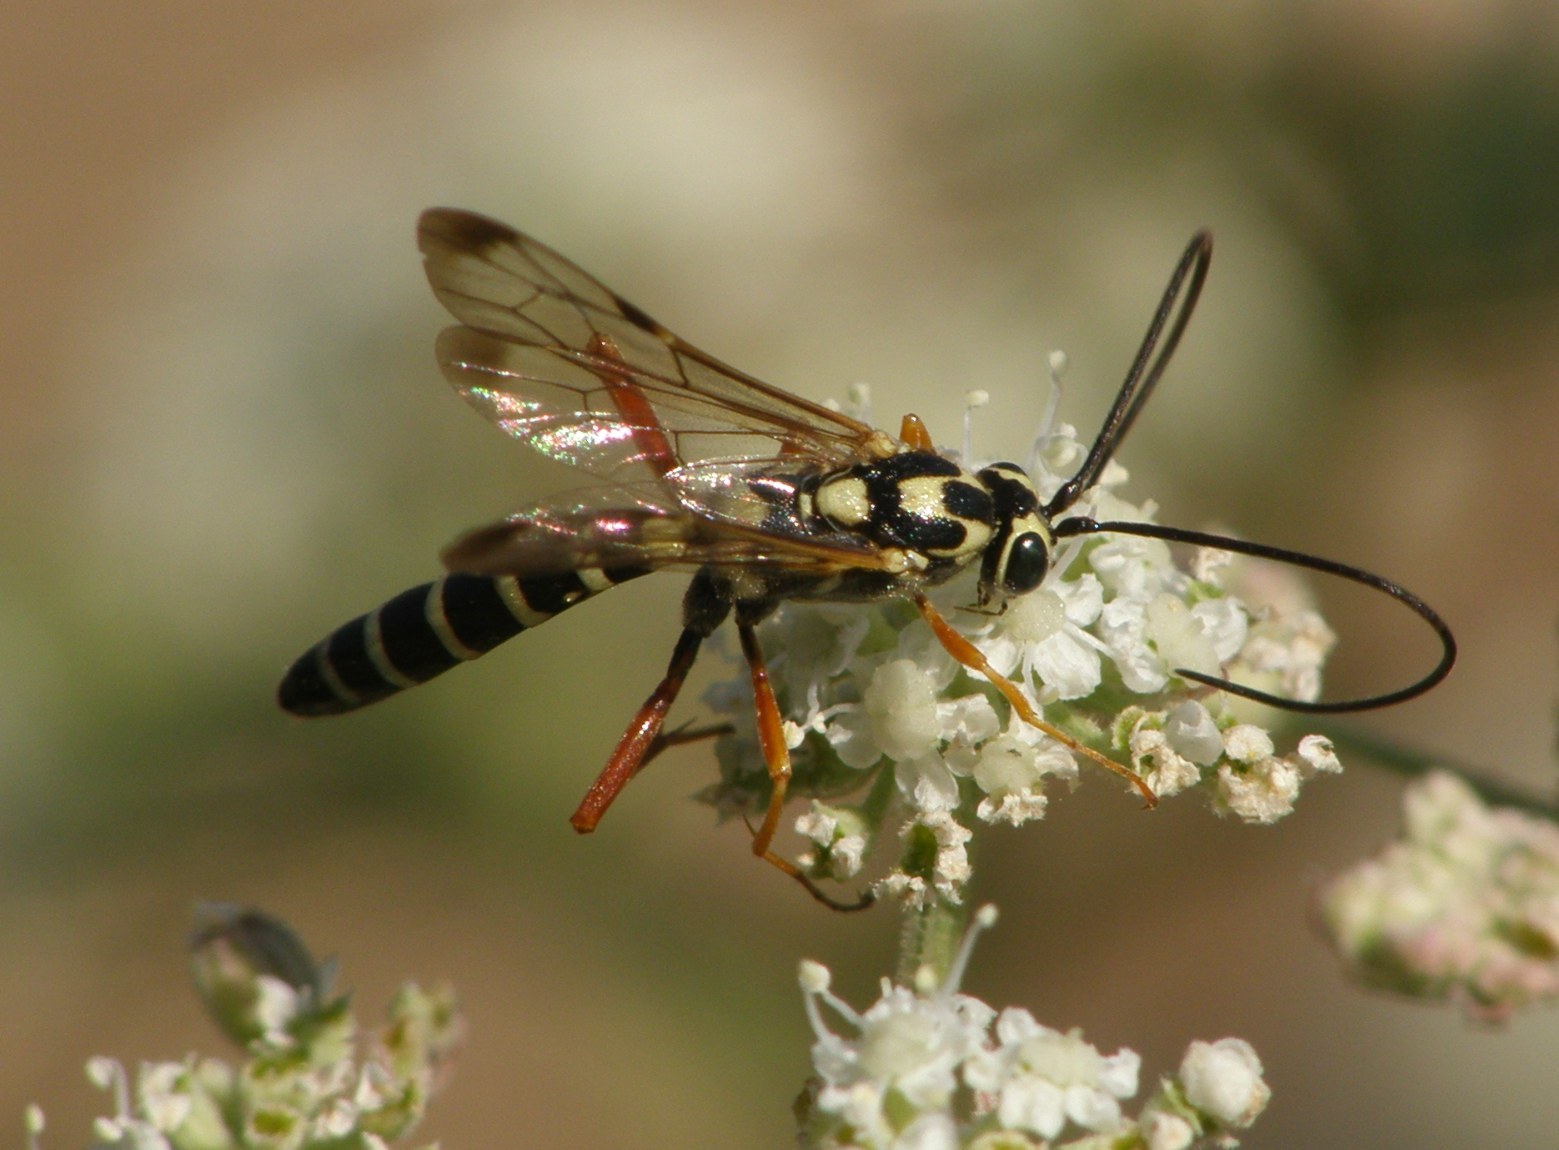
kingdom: Animalia
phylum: Arthropoda
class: Insecta
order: Hymenoptera
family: Ichneumonidae
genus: Syzeuctus
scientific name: Syzeuctus irrisorius
